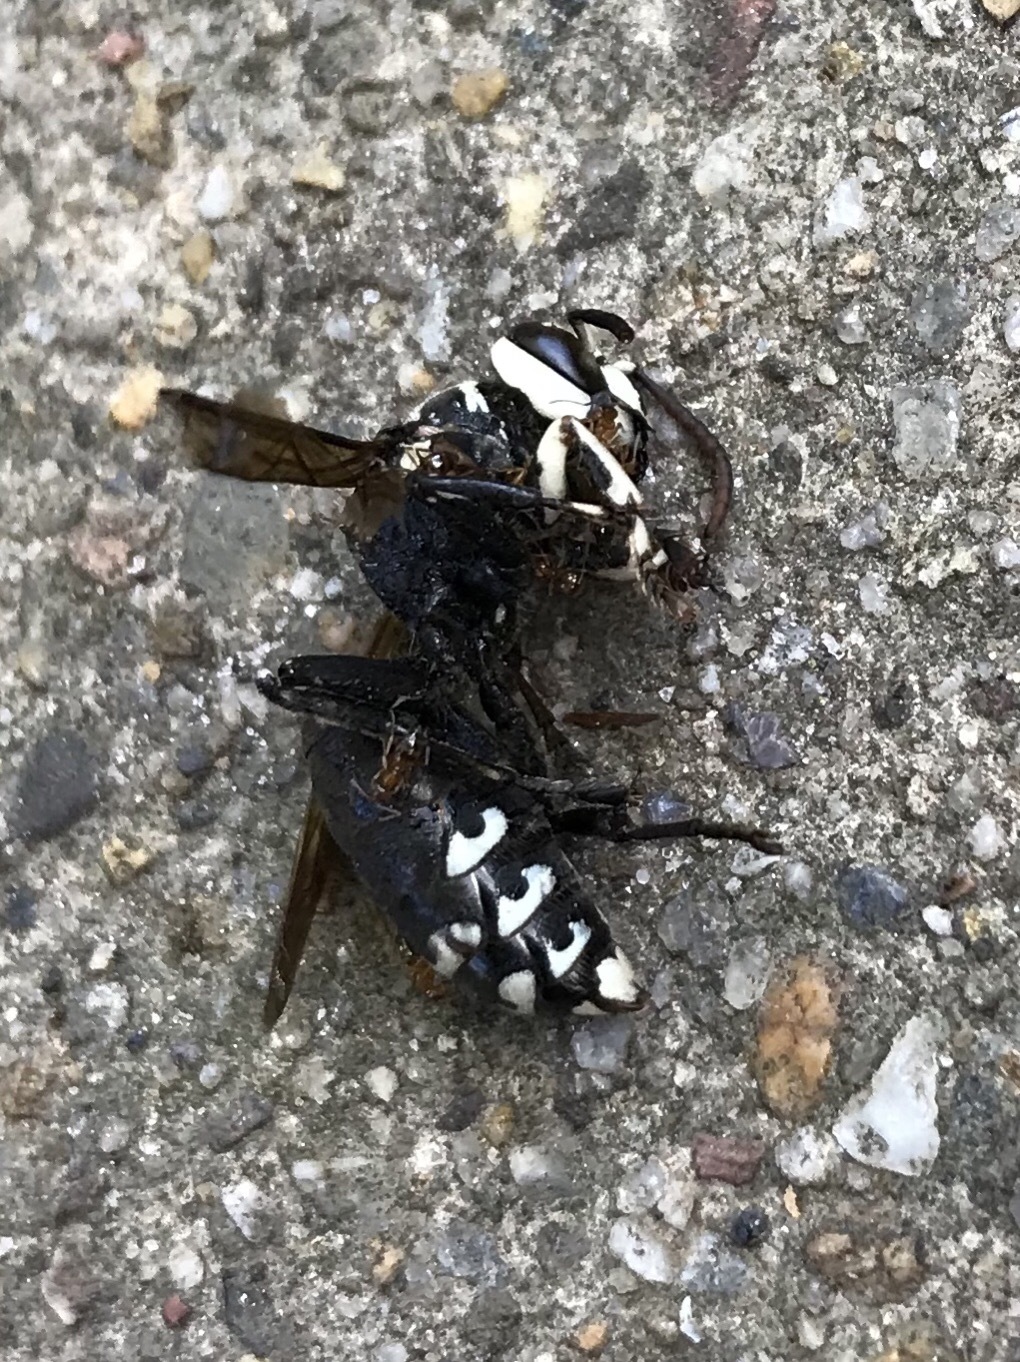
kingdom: Animalia
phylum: Arthropoda
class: Insecta
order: Hymenoptera
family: Vespidae
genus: Dolichovespula
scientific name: Dolichovespula maculata
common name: Bald-faced hornet
